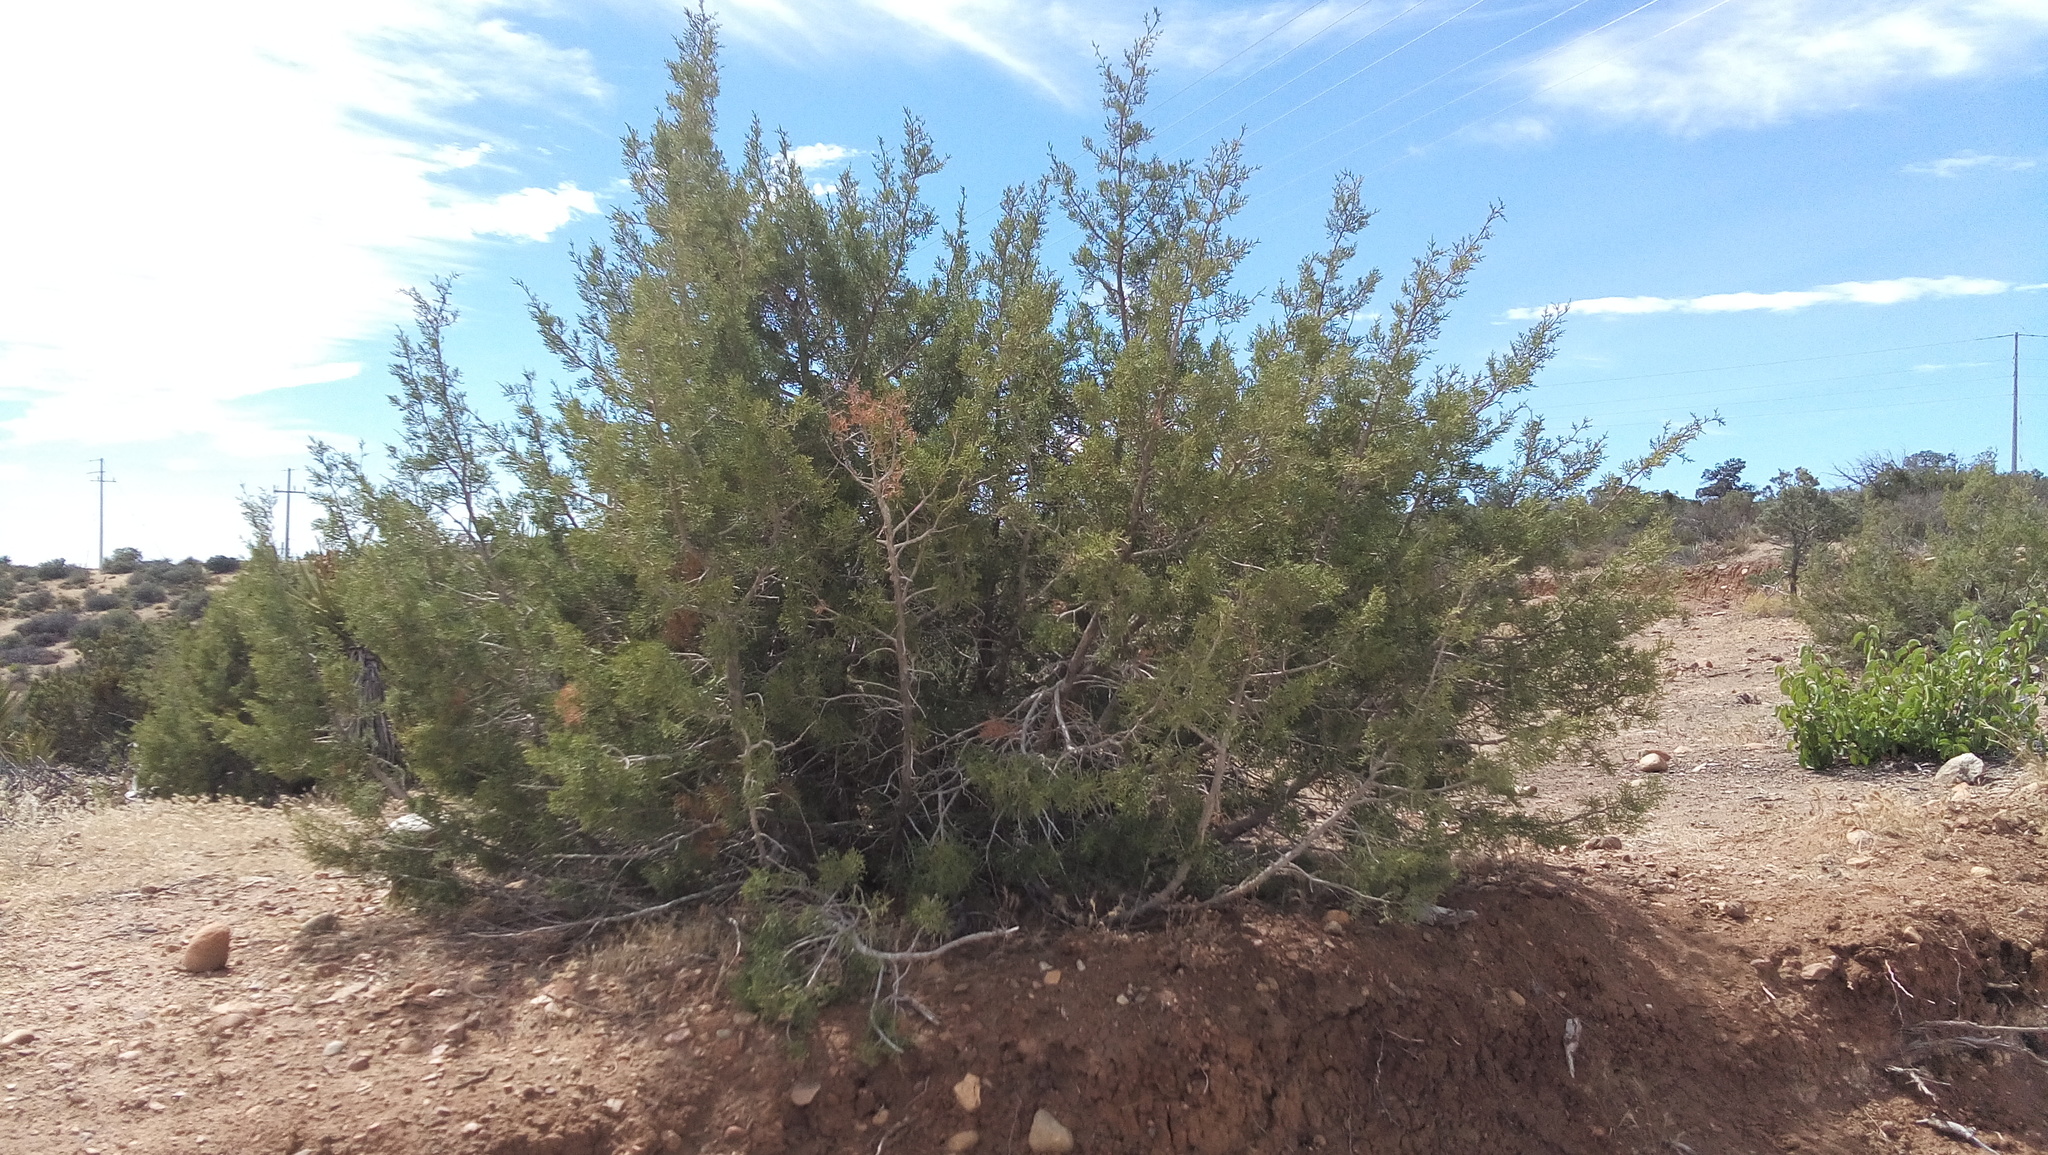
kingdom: Plantae
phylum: Tracheophyta
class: Pinopsida
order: Pinales
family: Cupressaceae
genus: Juniperus
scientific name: Juniperus californica
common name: California juniper
